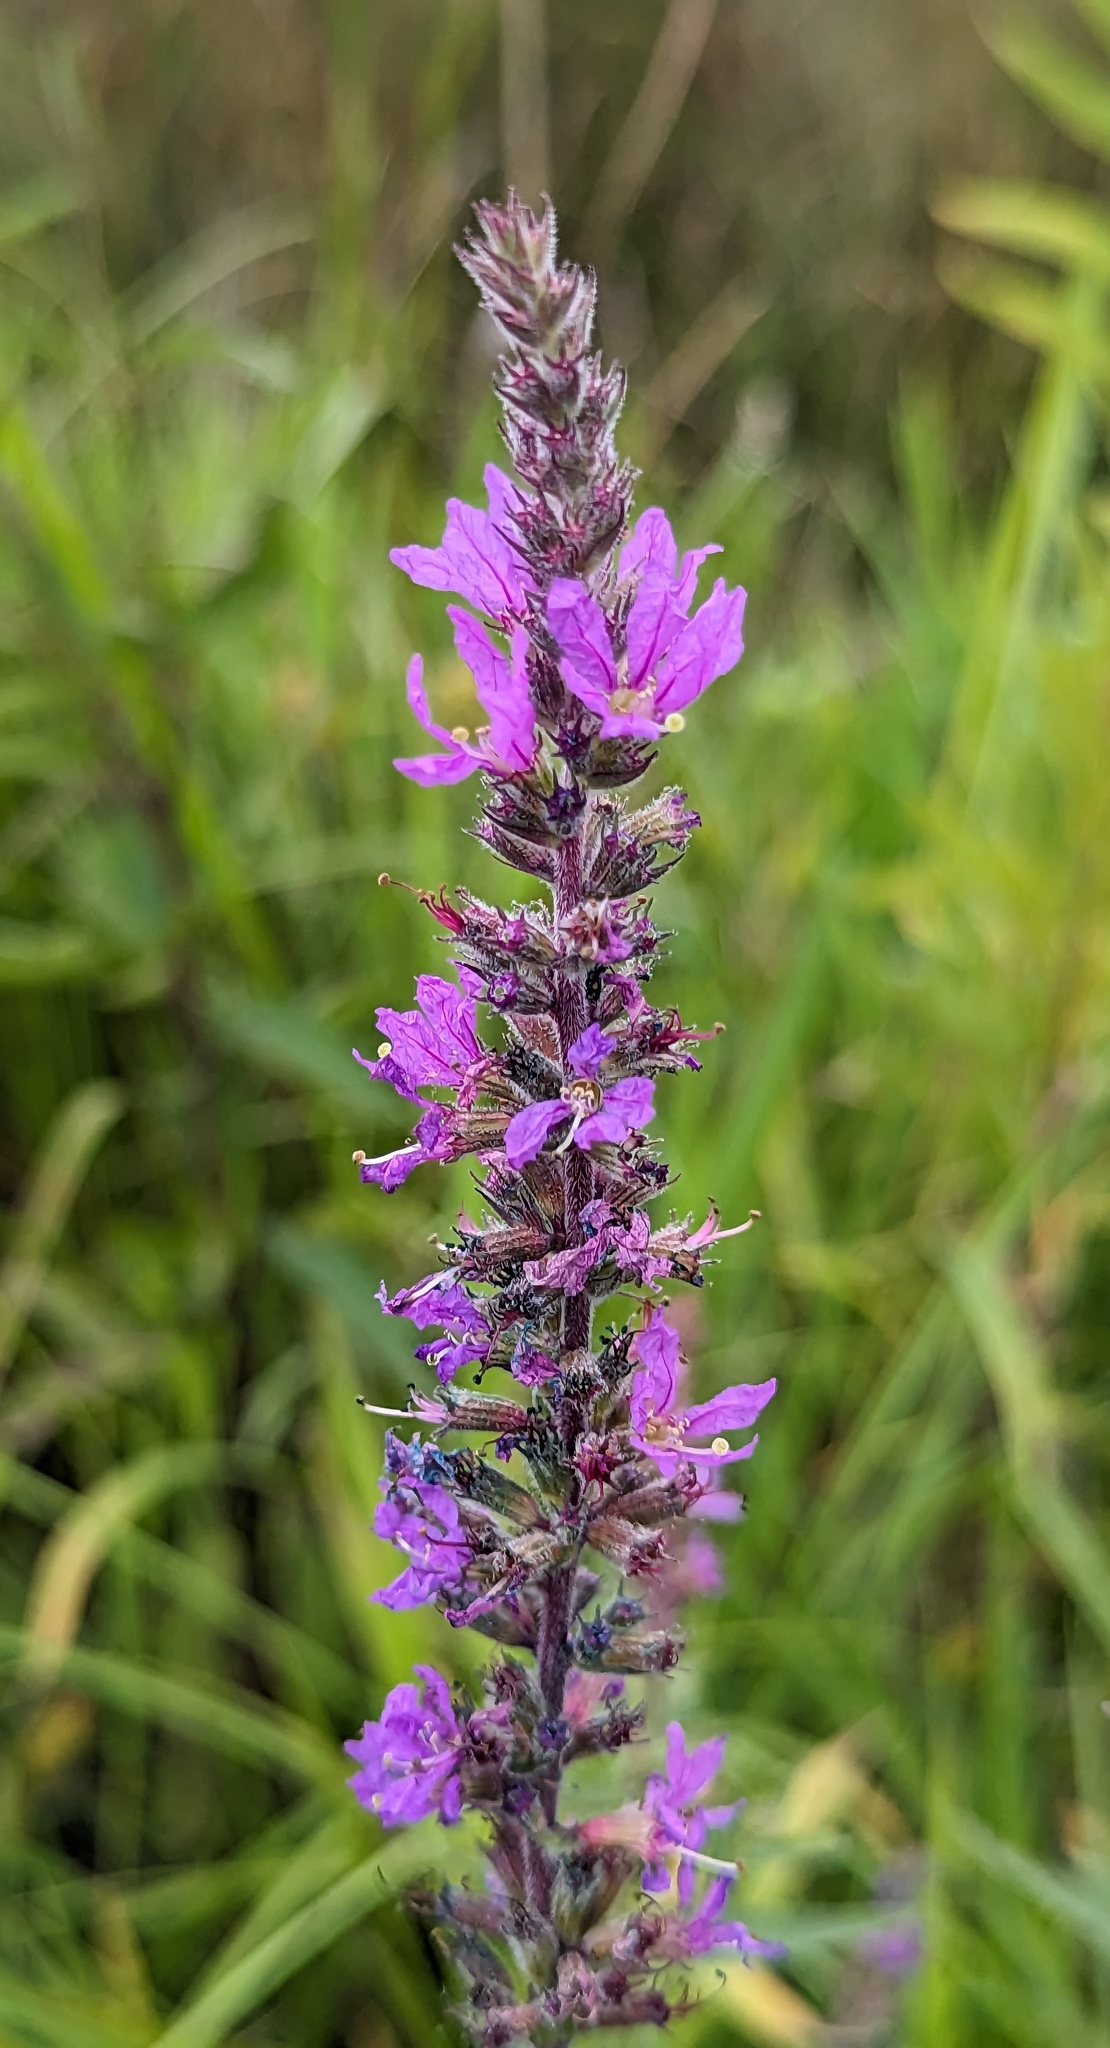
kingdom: Plantae
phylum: Tracheophyta
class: Magnoliopsida
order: Myrtales
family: Lythraceae
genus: Lythrum
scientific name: Lythrum salicaria
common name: Purple loosestrife
